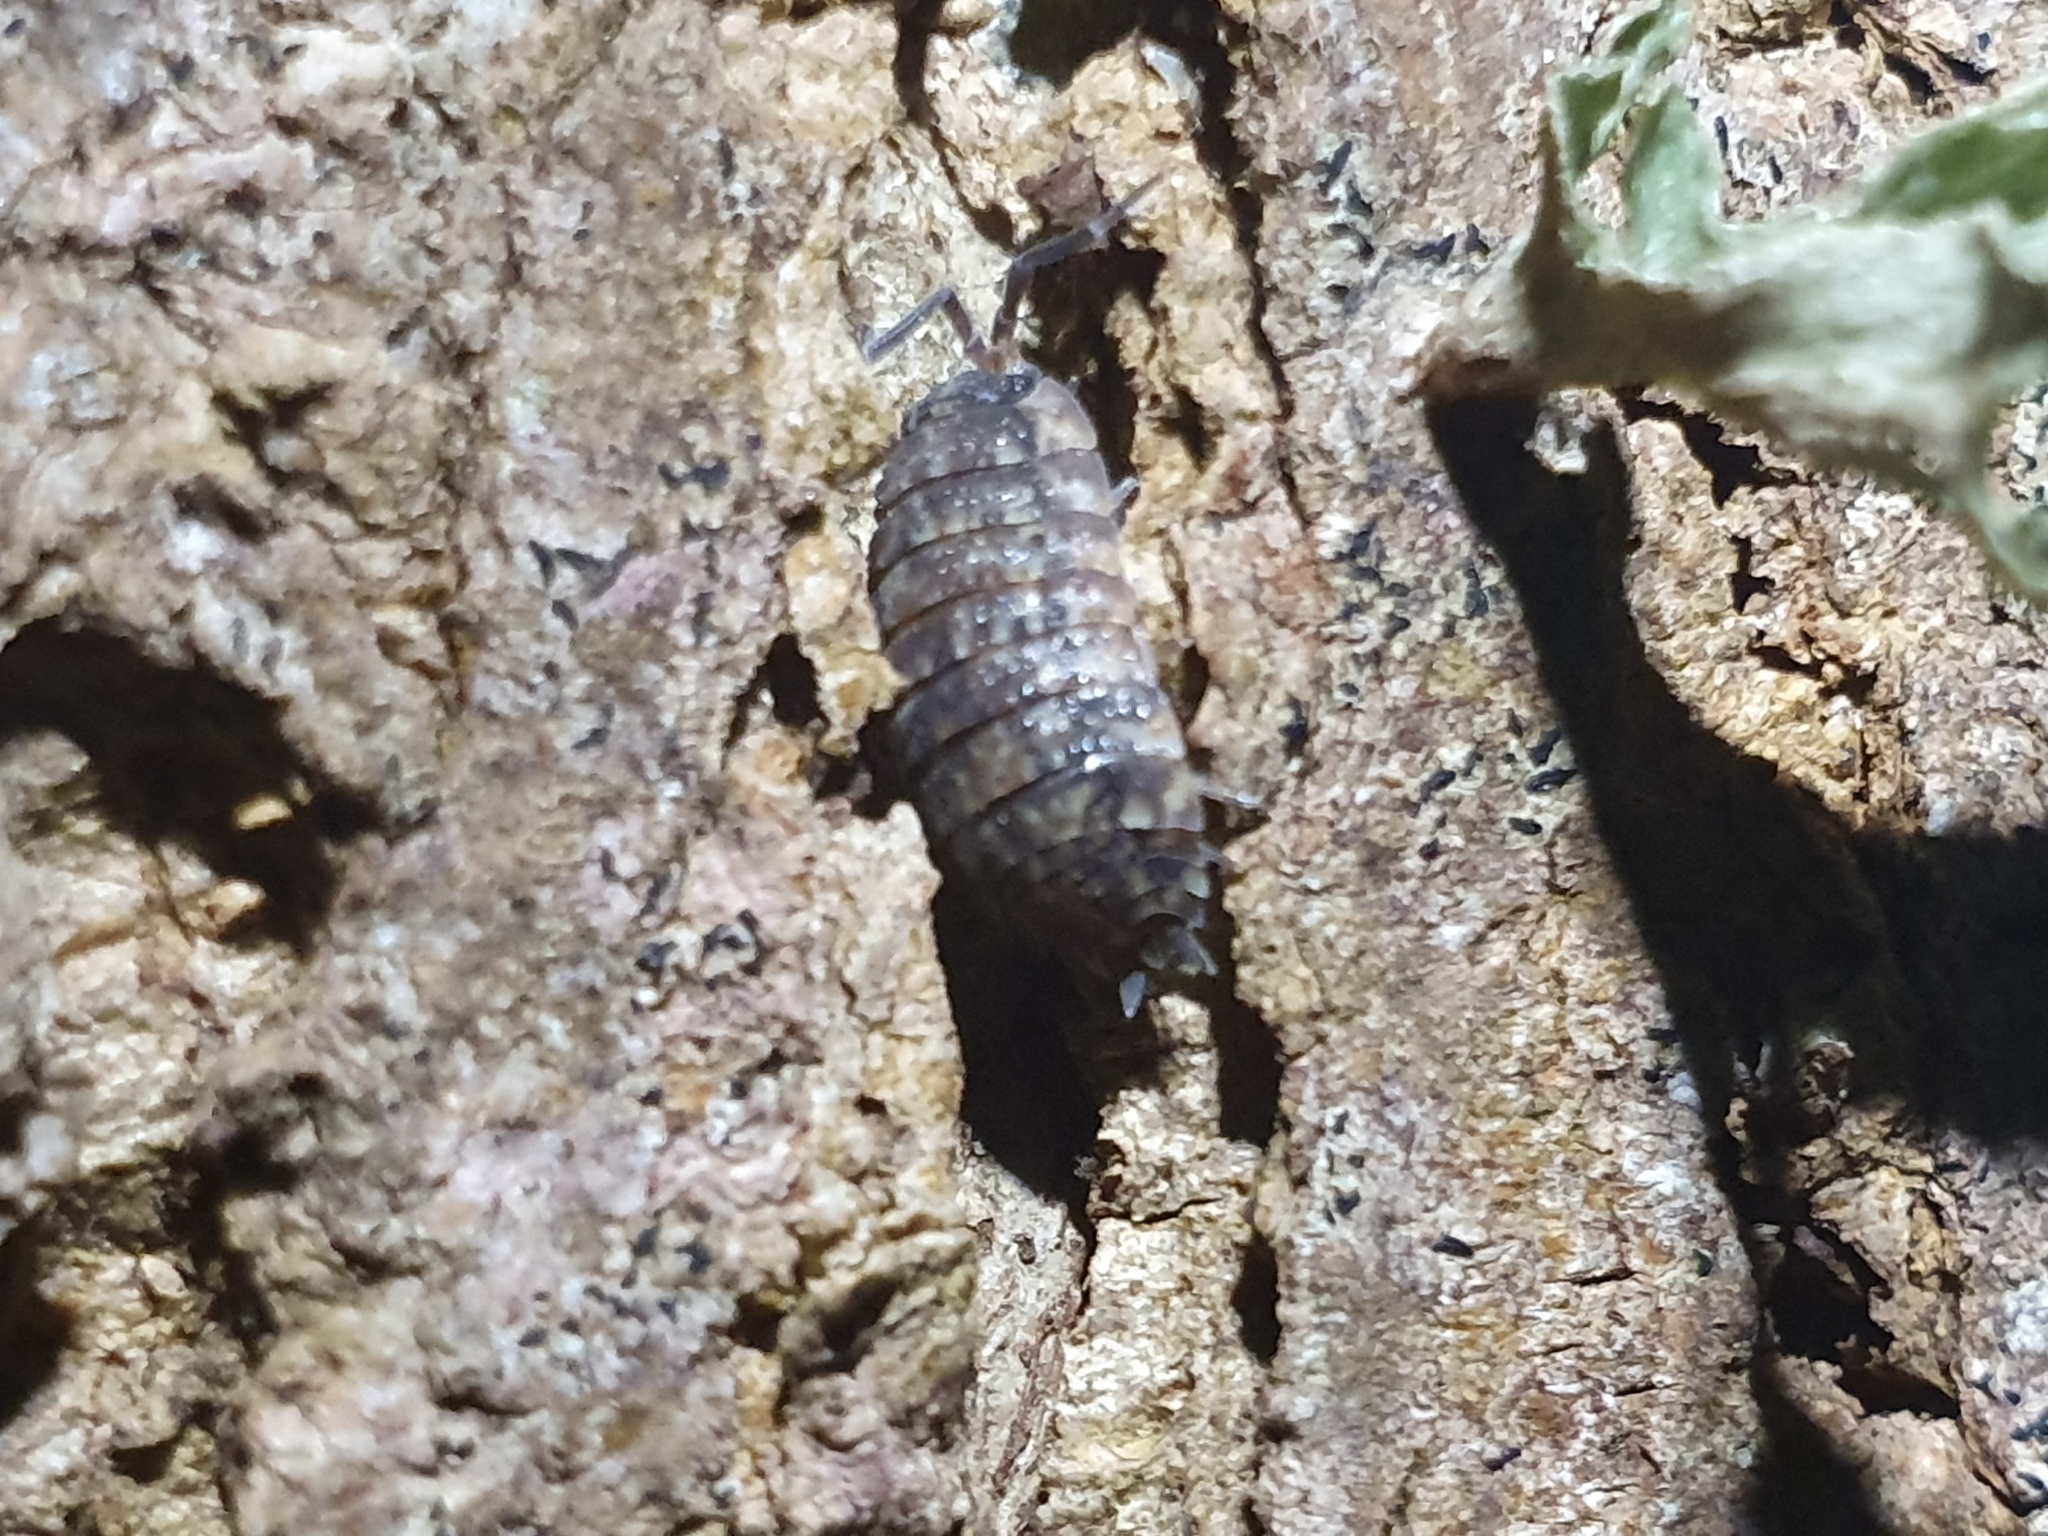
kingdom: Animalia
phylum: Arthropoda
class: Malacostraca
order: Isopoda
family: Porcellionidae
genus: Porcellio
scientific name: Porcellio scaber
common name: Common rough woodlouse
